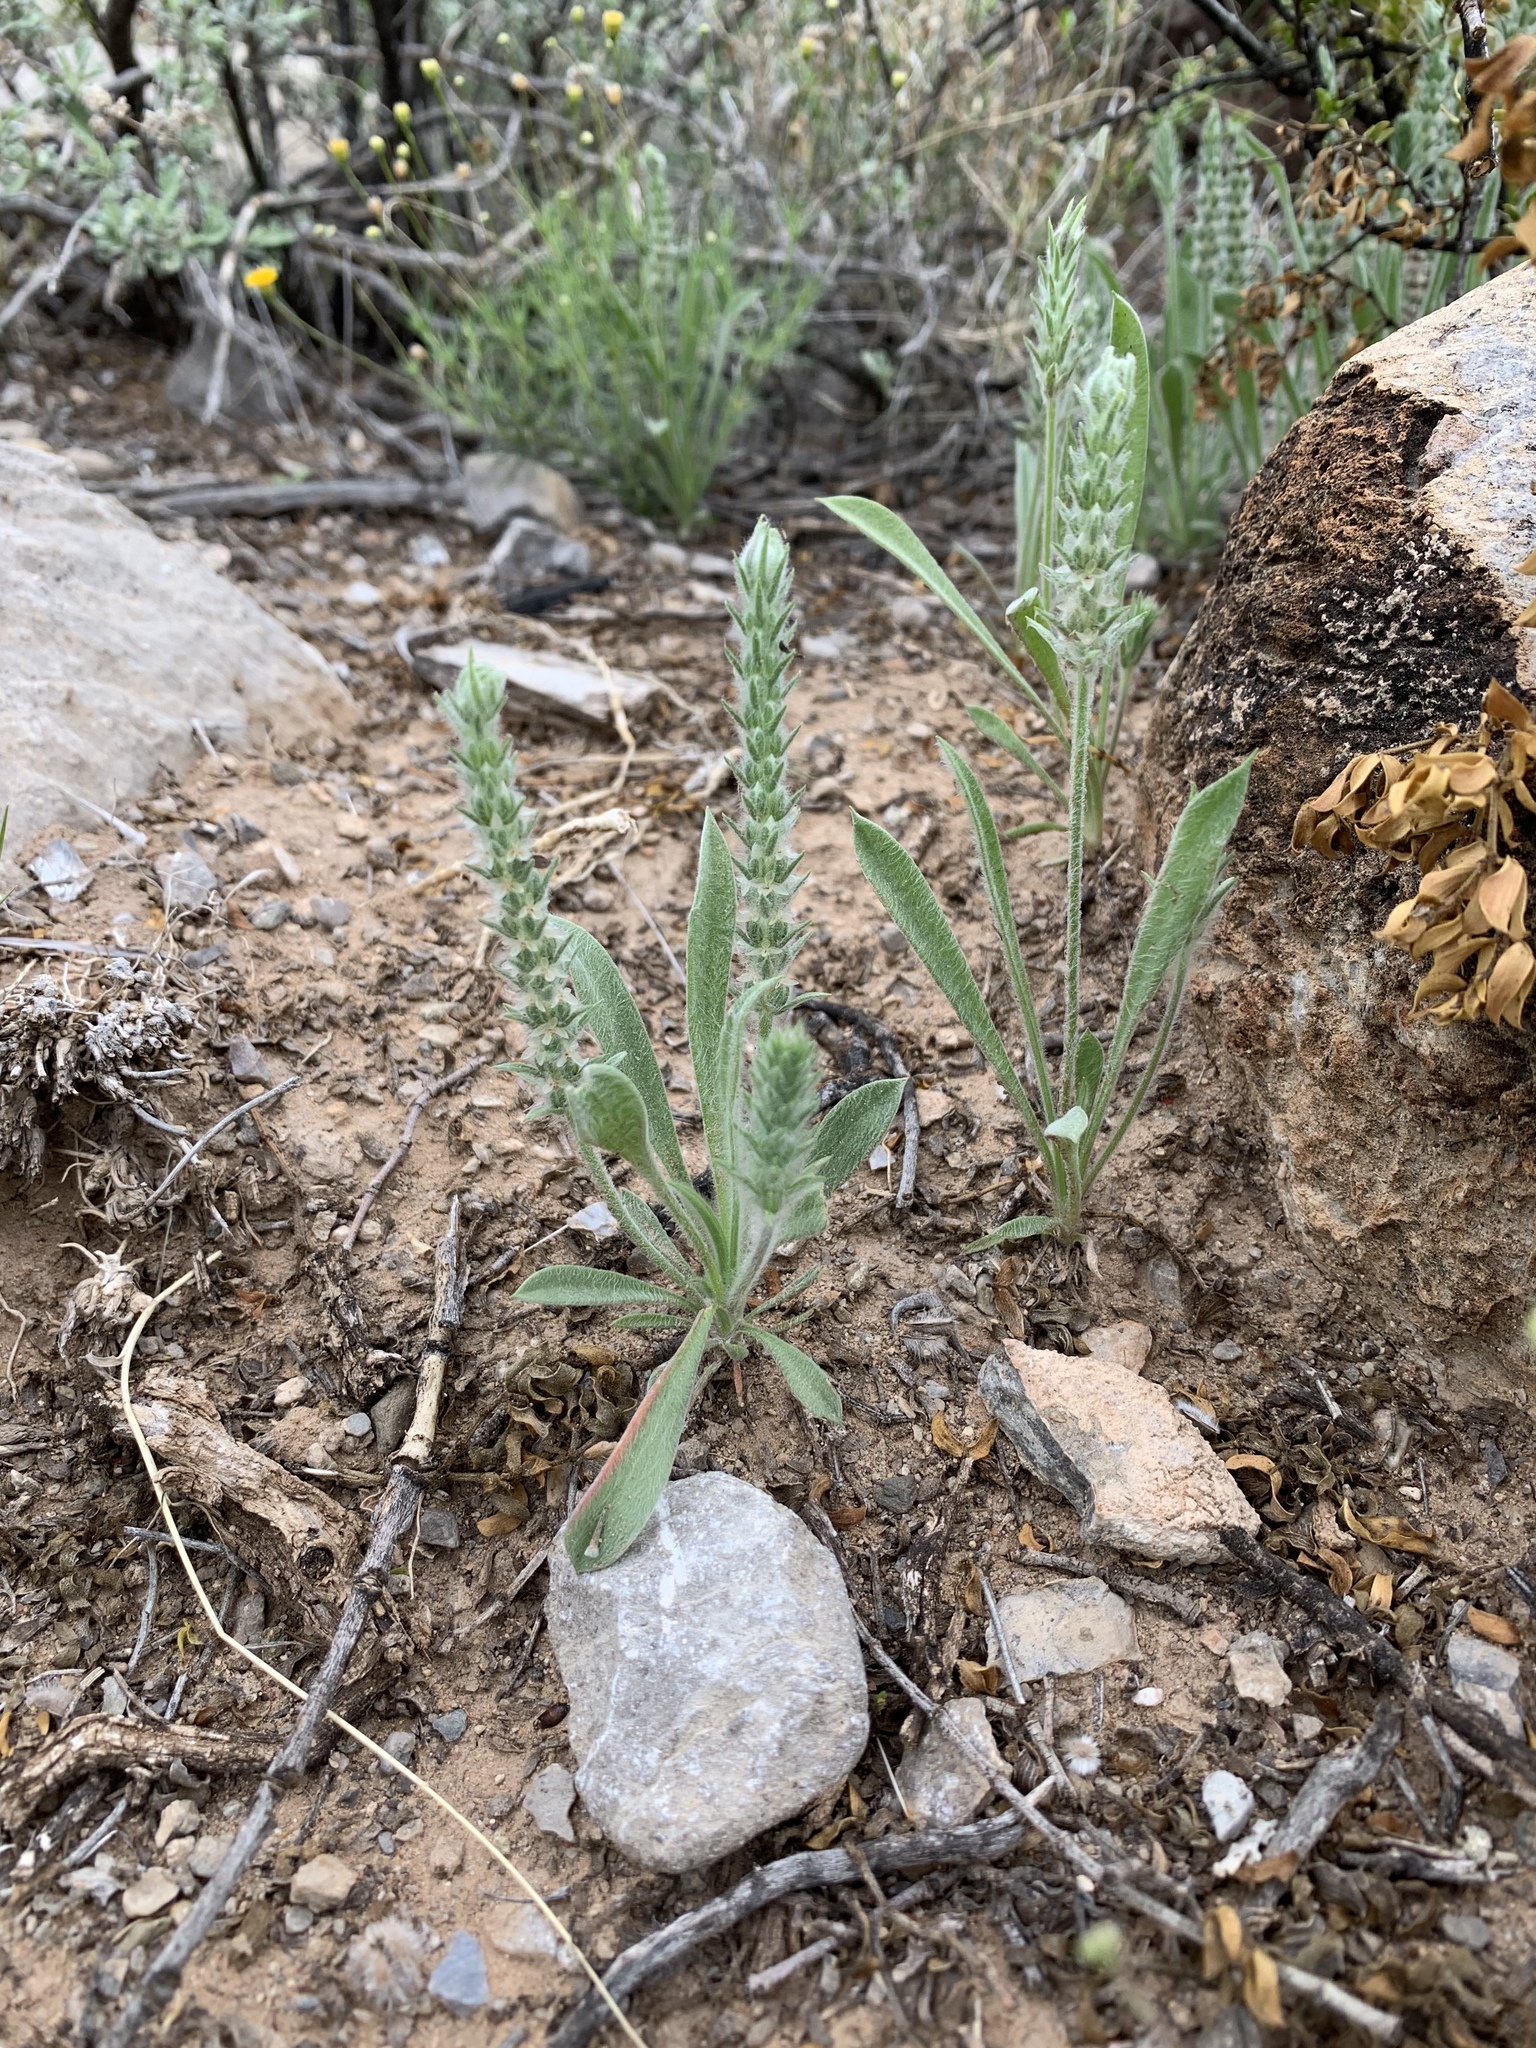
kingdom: Plantae
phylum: Tracheophyta
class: Magnoliopsida
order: Lamiales
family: Plantaginaceae
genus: Plantago
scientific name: Plantago patagonica
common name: Patagonia indian-wheat
